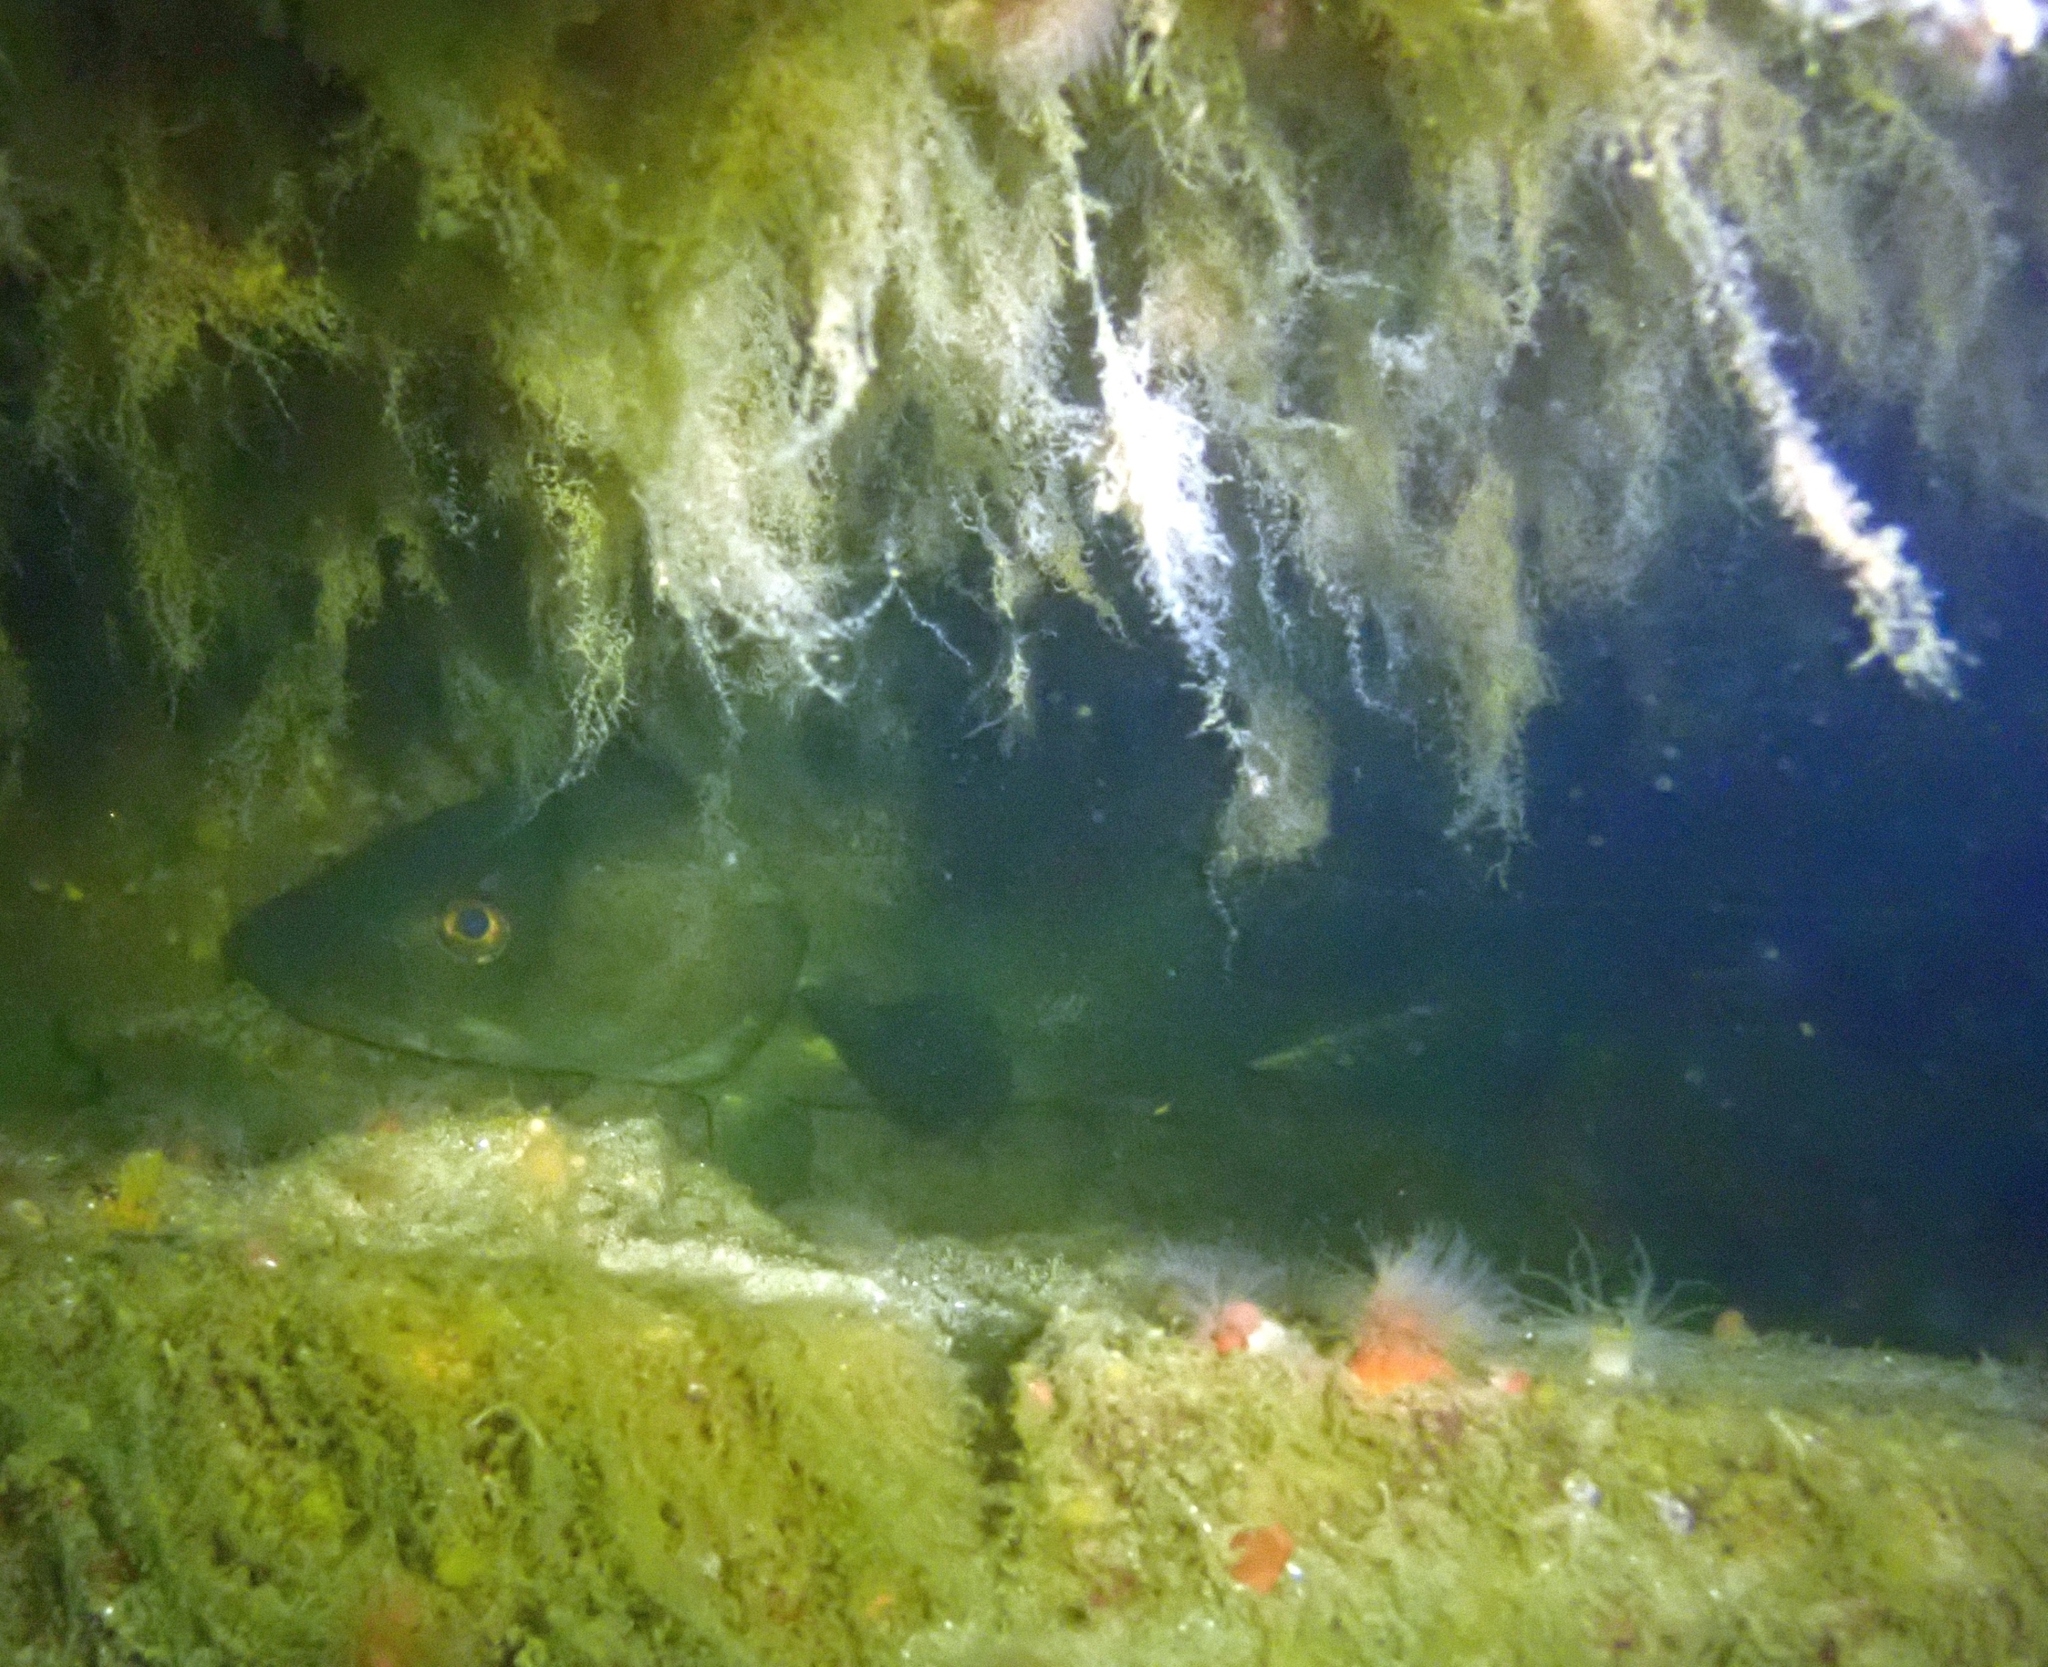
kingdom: Animalia
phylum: Chordata
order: Gadiformes
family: Gadidae
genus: Gadus
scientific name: Gadus morhua
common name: Atlantic cod
